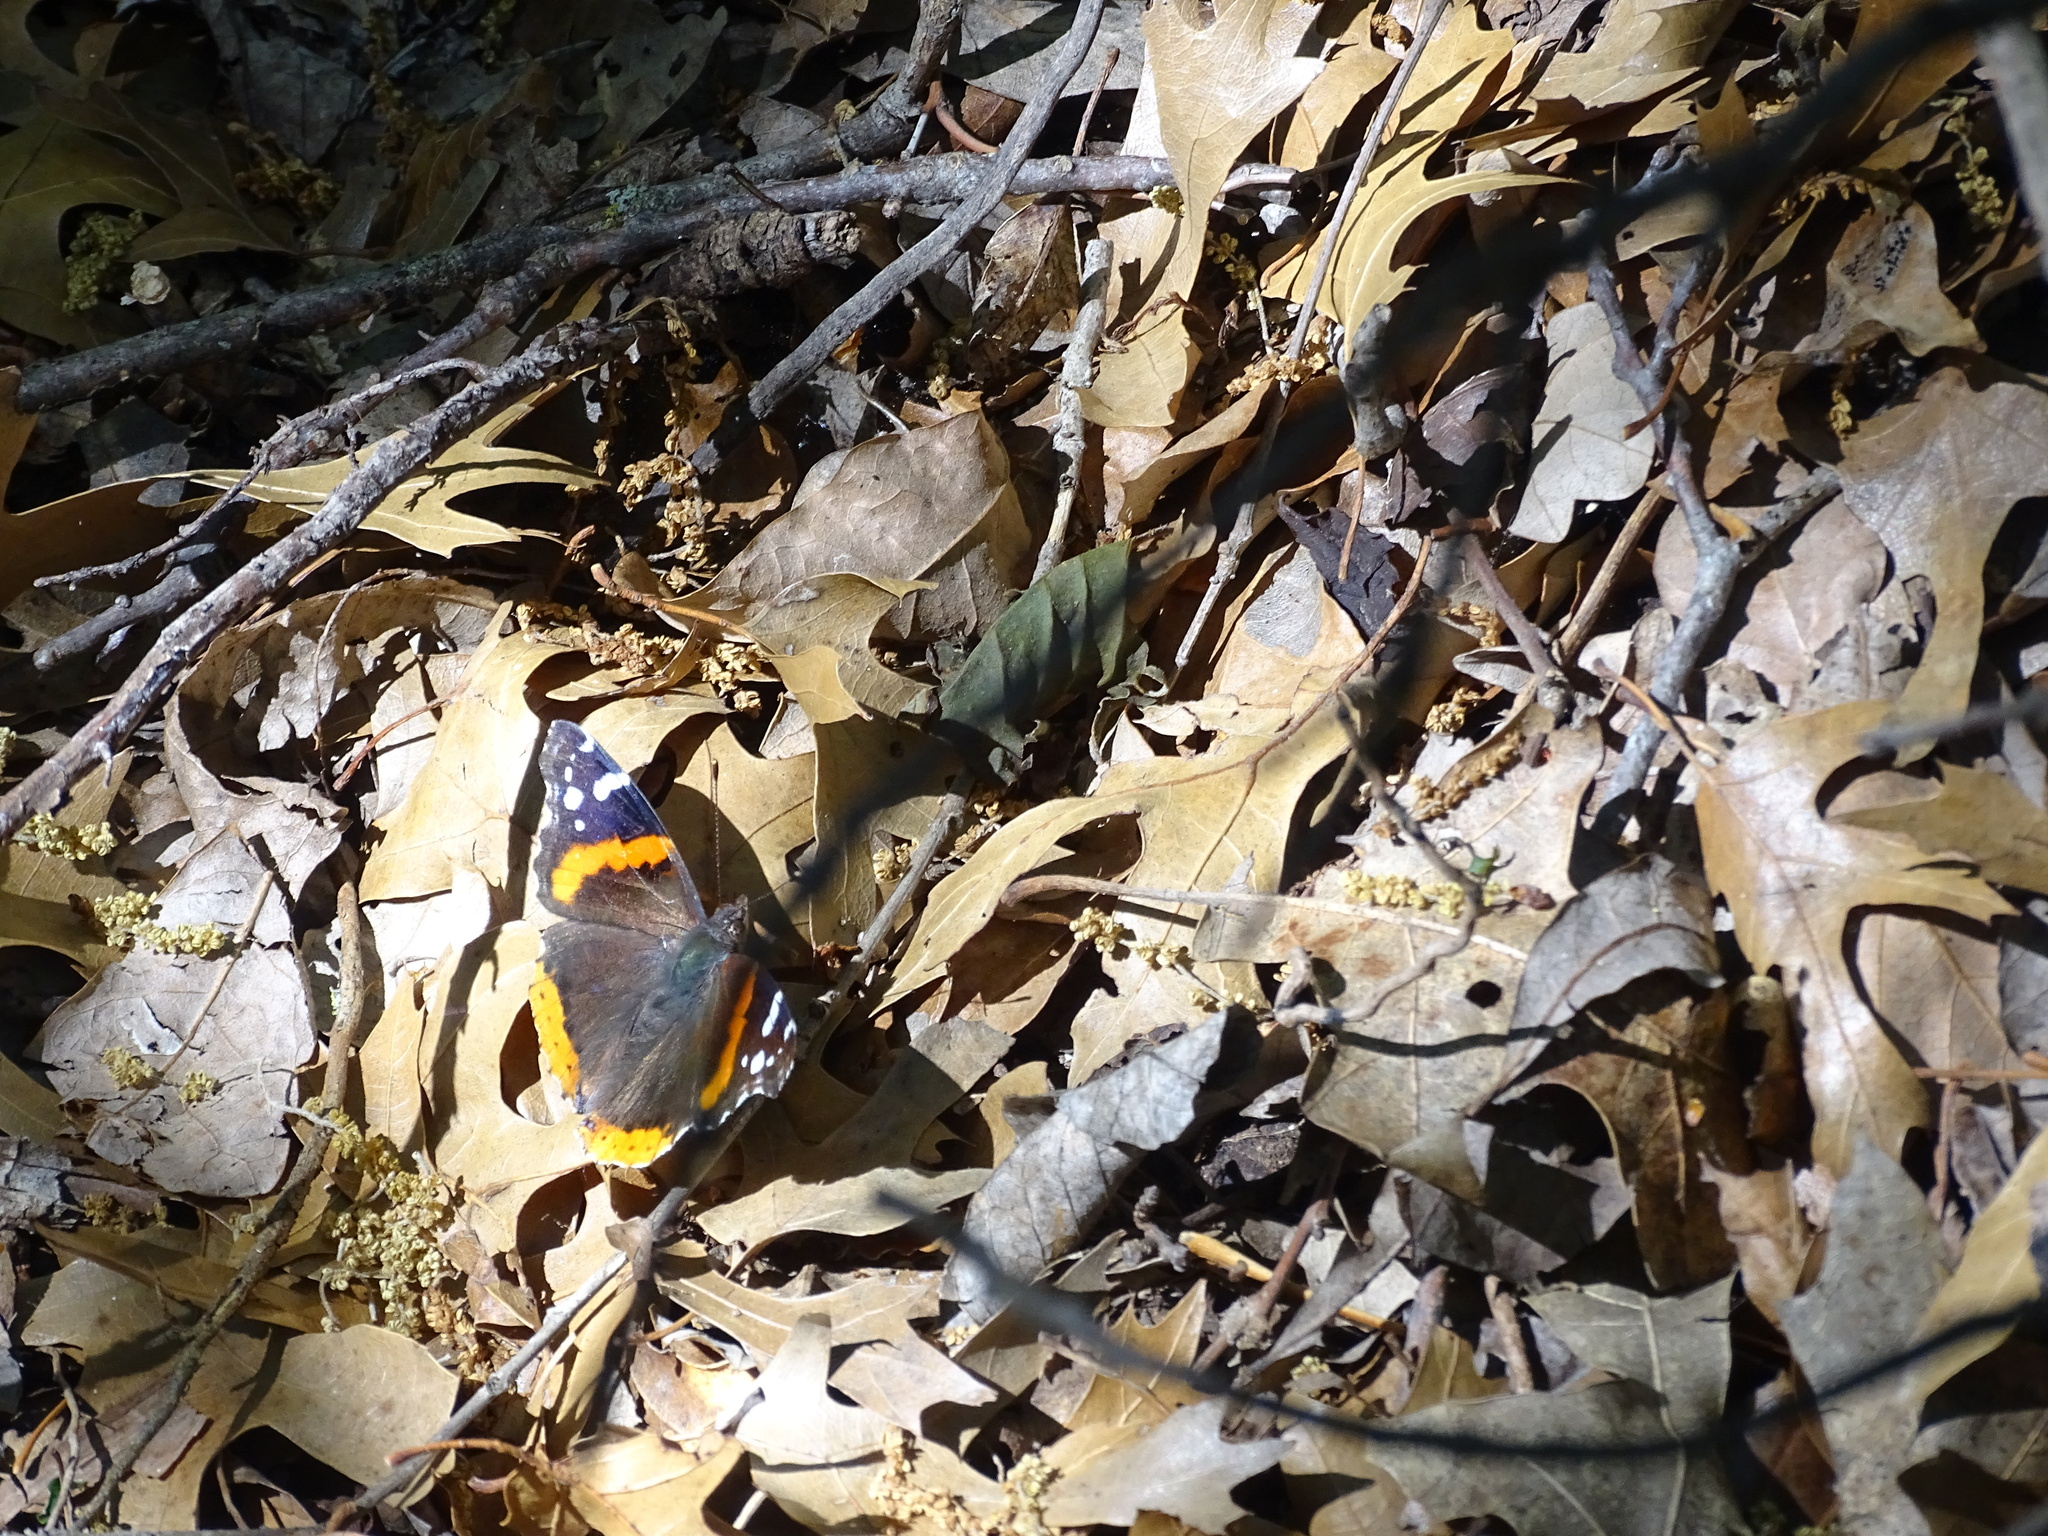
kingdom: Animalia
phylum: Arthropoda
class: Insecta
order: Lepidoptera
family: Nymphalidae
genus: Vanessa
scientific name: Vanessa atalanta
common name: Red admiral
